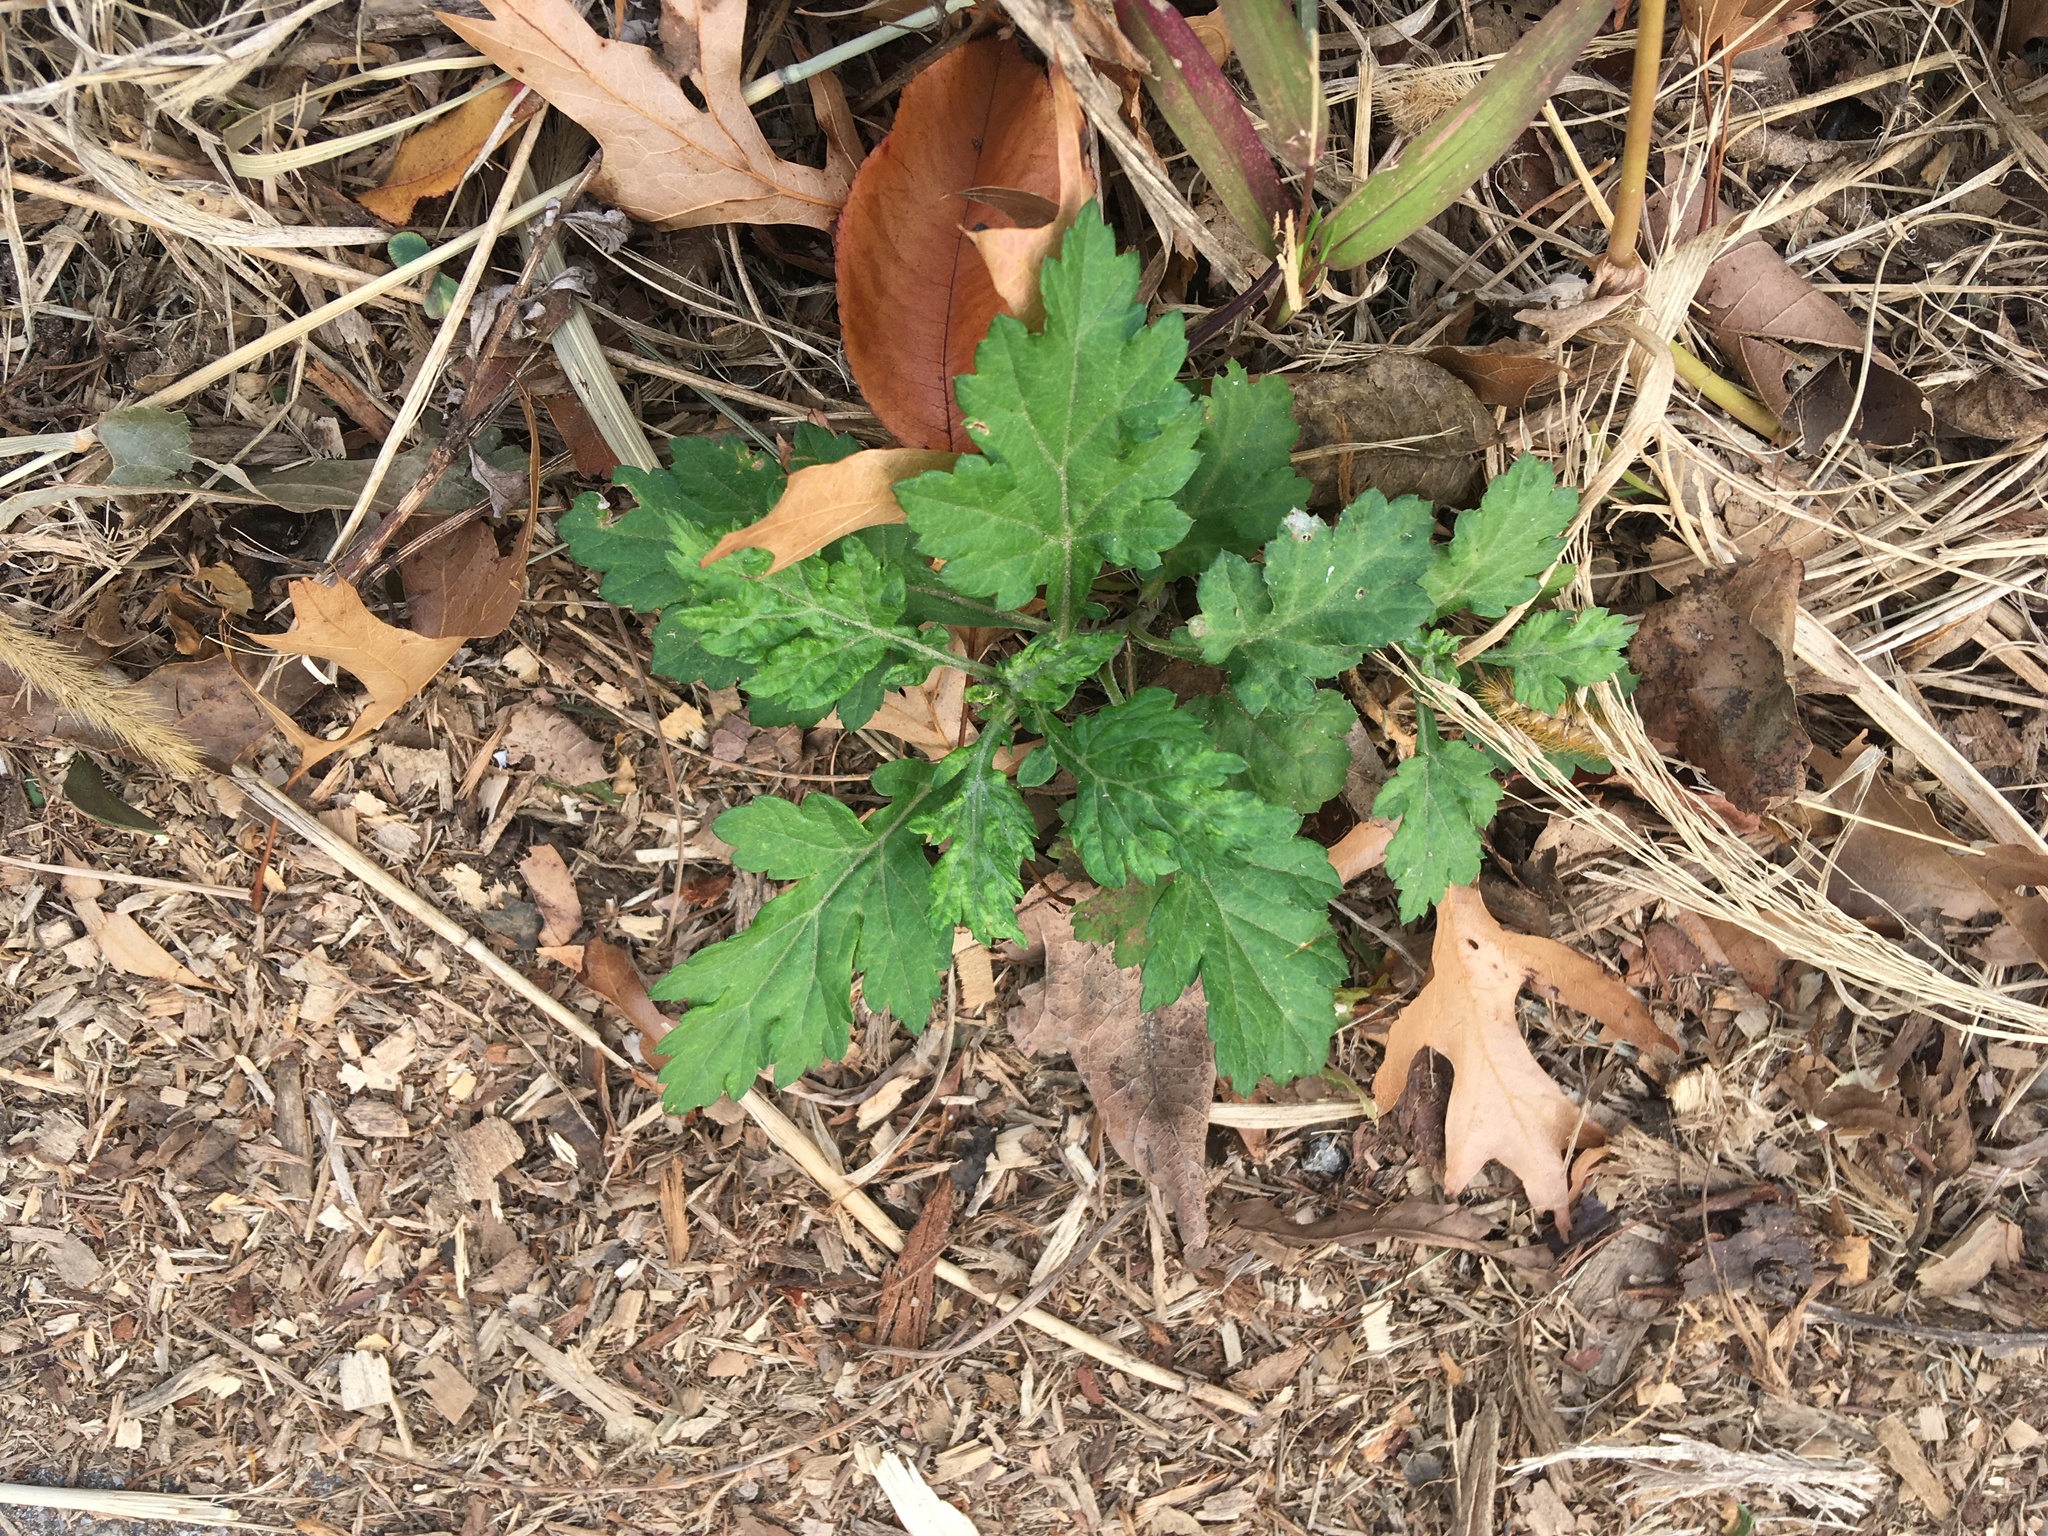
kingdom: Plantae
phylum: Tracheophyta
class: Magnoliopsida
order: Asterales
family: Asteraceae
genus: Artemisia
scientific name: Artemisia vulgaris
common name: Mugwort
